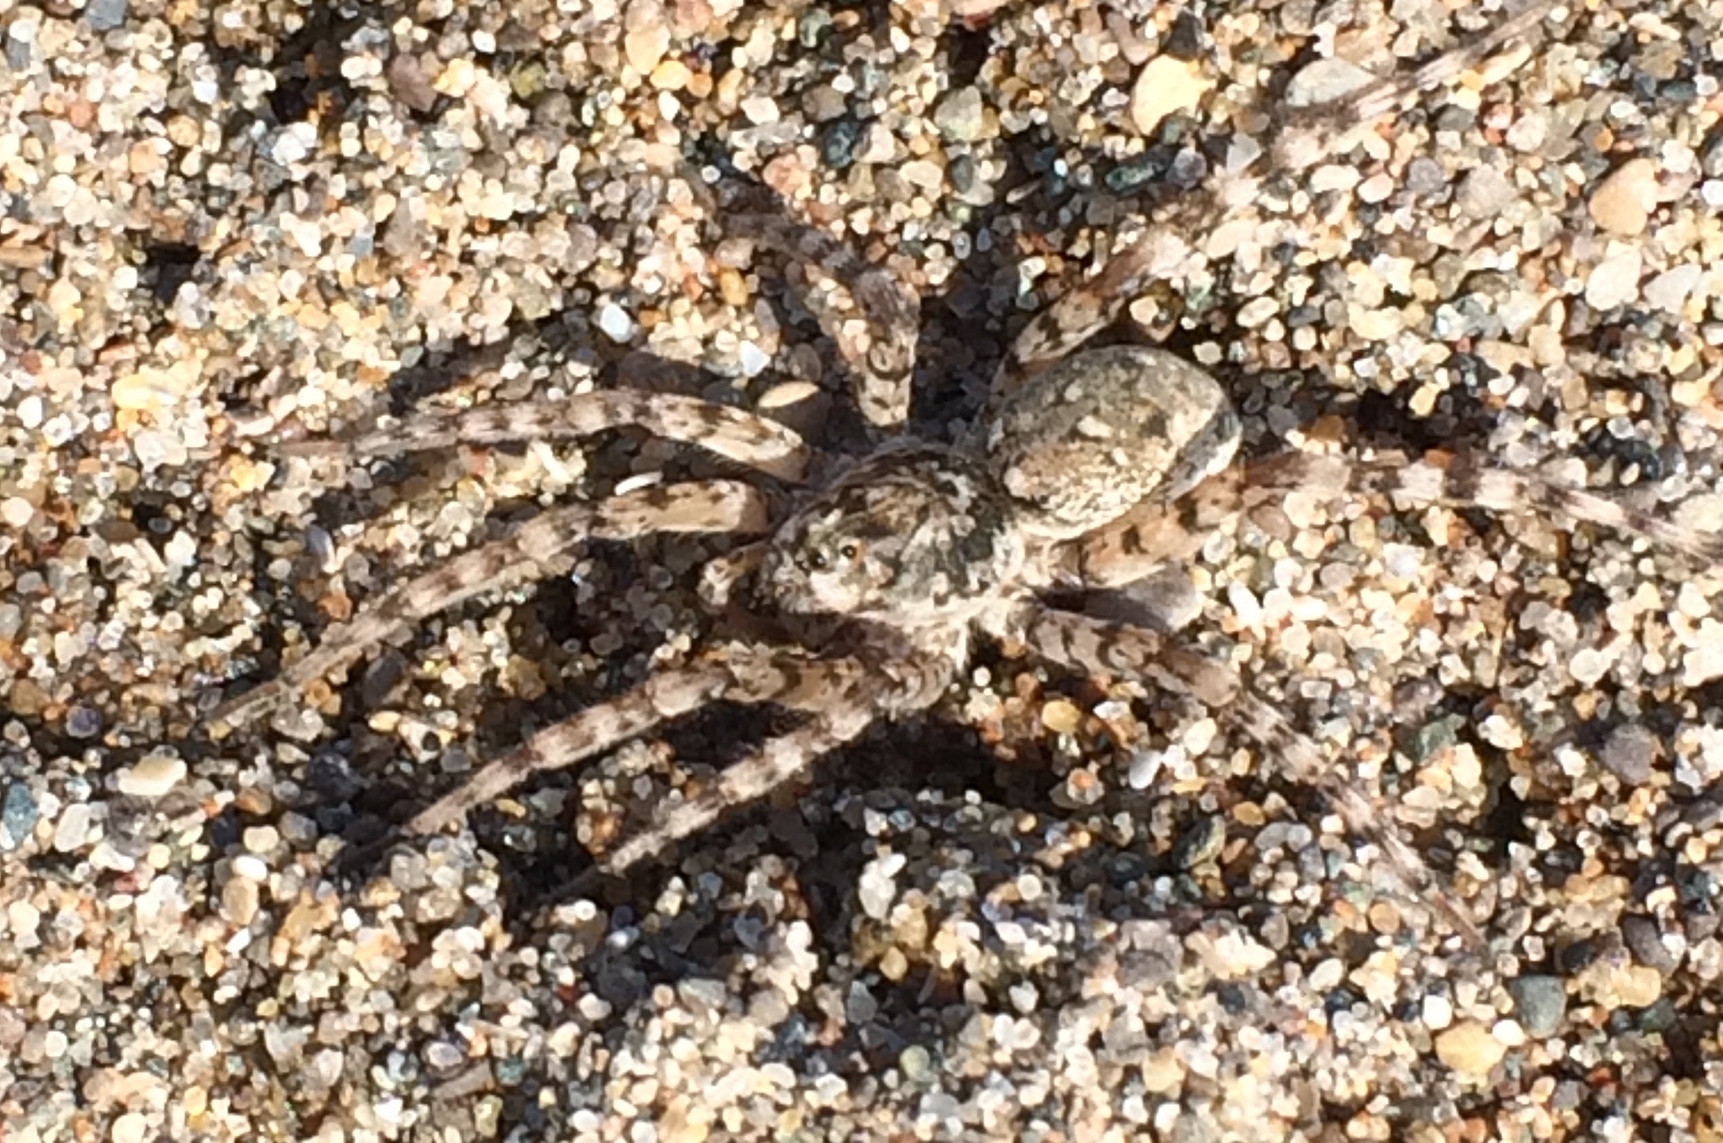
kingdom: Animalia
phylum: Arthropoda
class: Arachnida
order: Araneae
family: Lycosidae
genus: Arctosa
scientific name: Arctosa littoralis
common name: Wolf spiders
